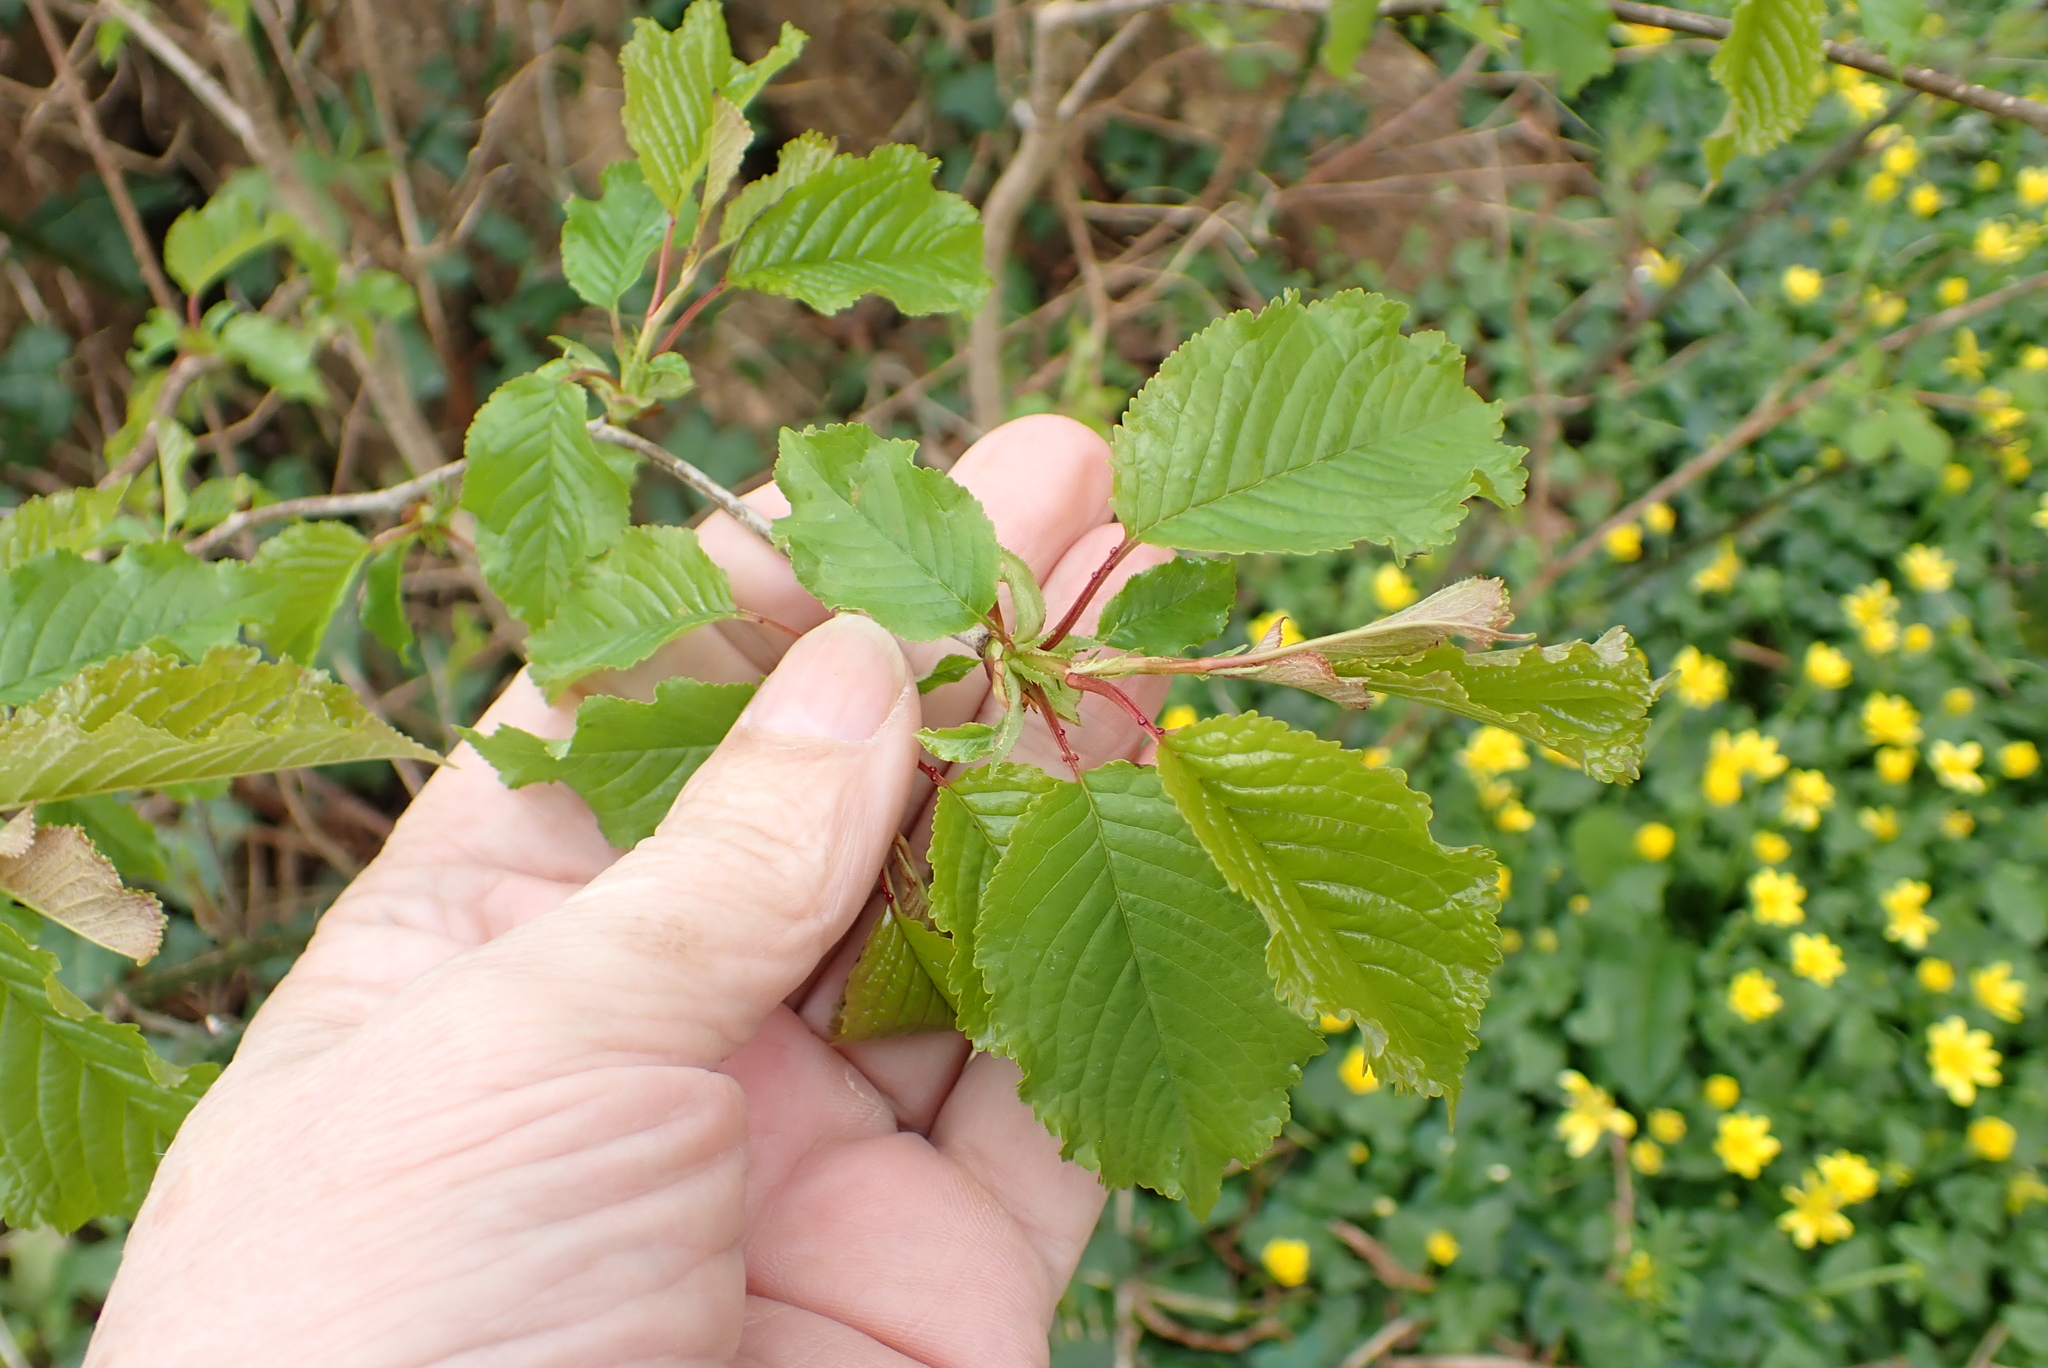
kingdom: Plantae
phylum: Tracheophyta
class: Magnoliopsida
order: Rosales
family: Rosaceae
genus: Prunus
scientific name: Prunus avium
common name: Sweet cherry
